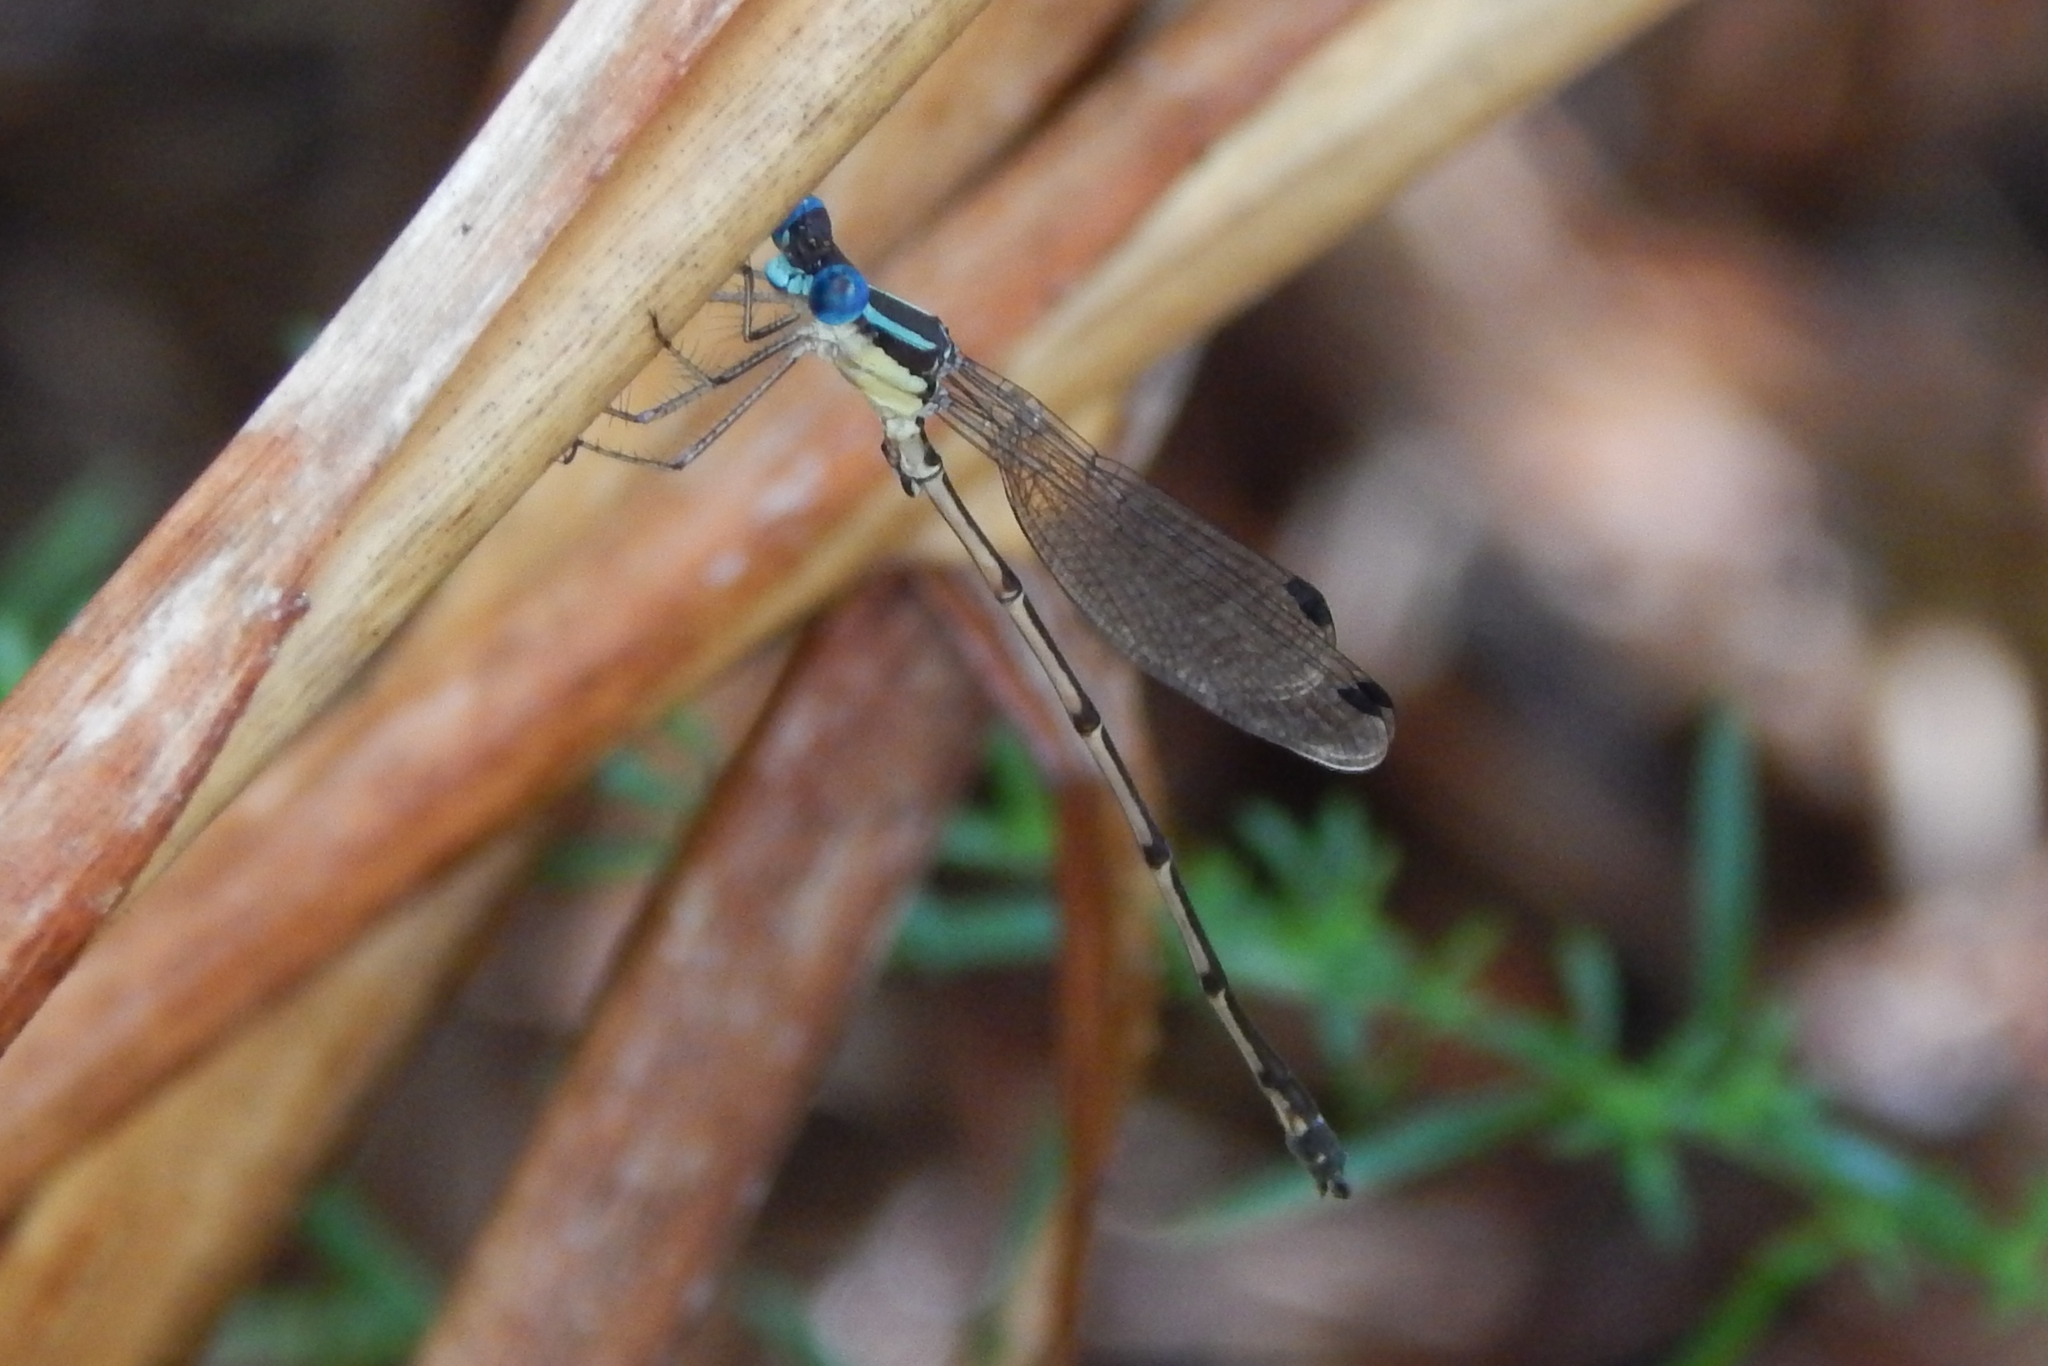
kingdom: Animalia
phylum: Arthropoda
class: Insecta
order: Odonata
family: Lestidae
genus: Lestes
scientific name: Lestes rectangularis
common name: Slender spreadwing
